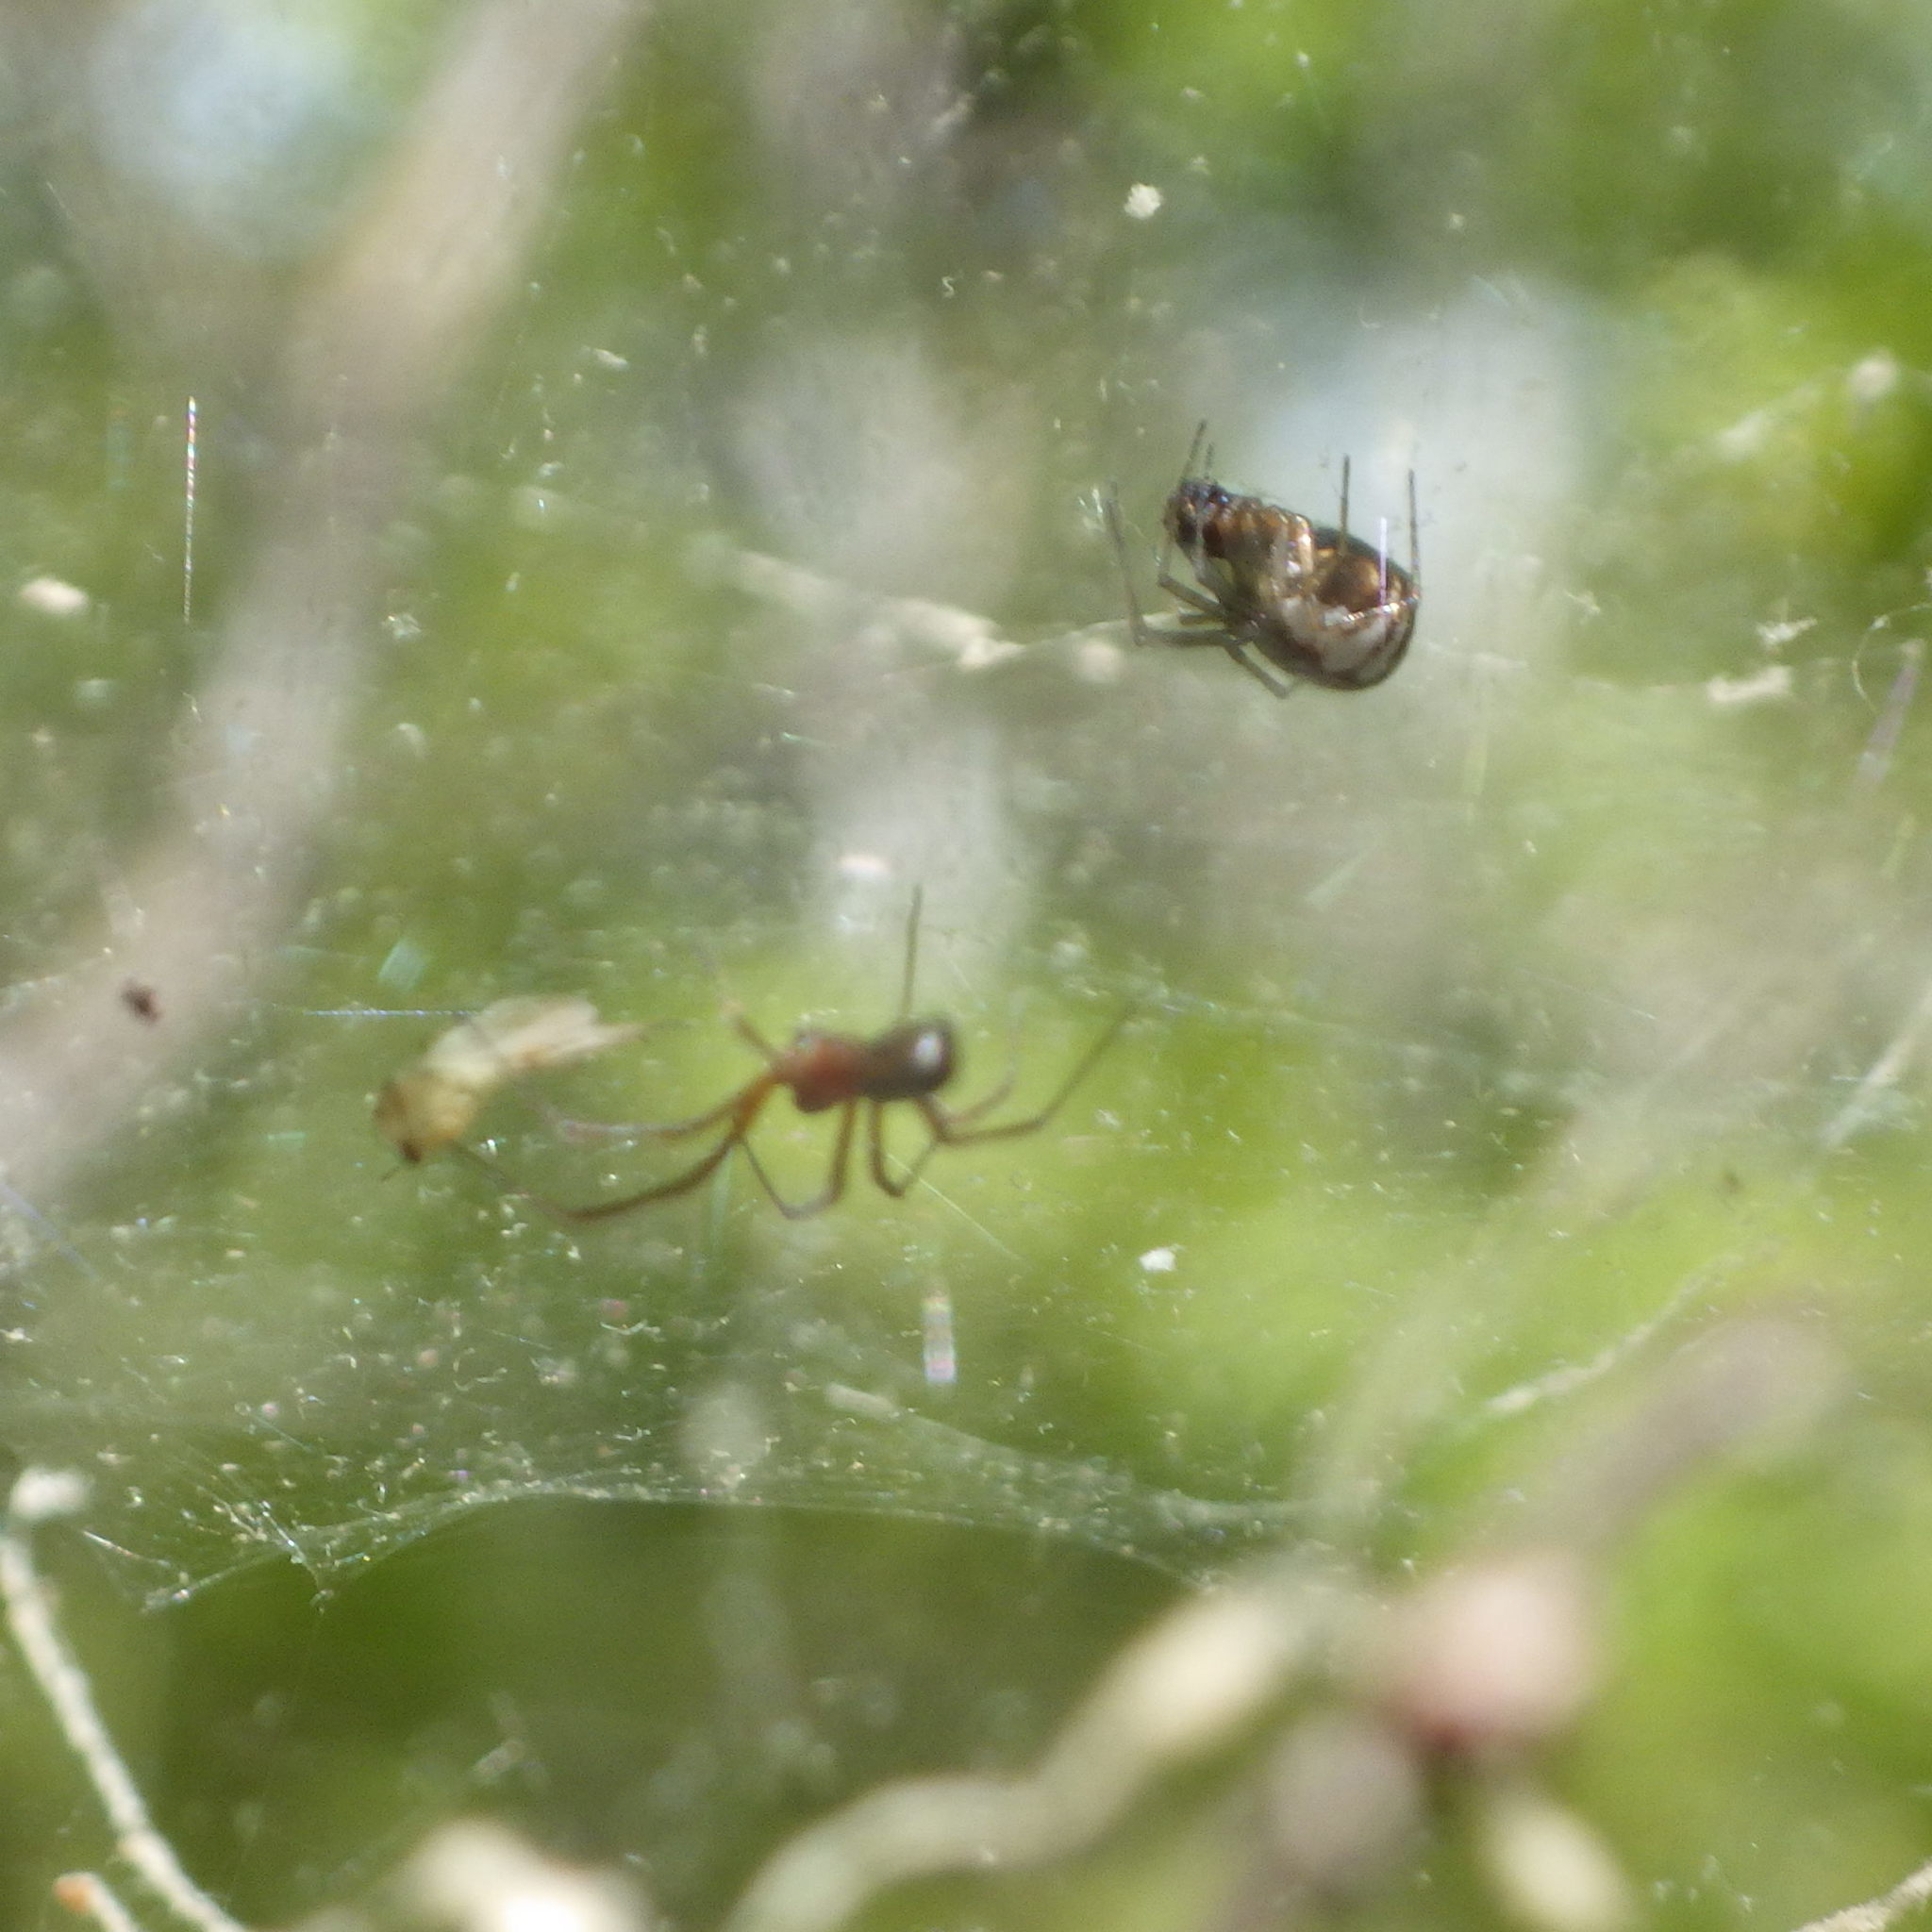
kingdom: Animalia
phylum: Arthropoda
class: Arachnida
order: Araneae
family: Linyphiidae
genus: Frontinella
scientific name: Frontinella pyramitela
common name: Bowl-and-doily spider
